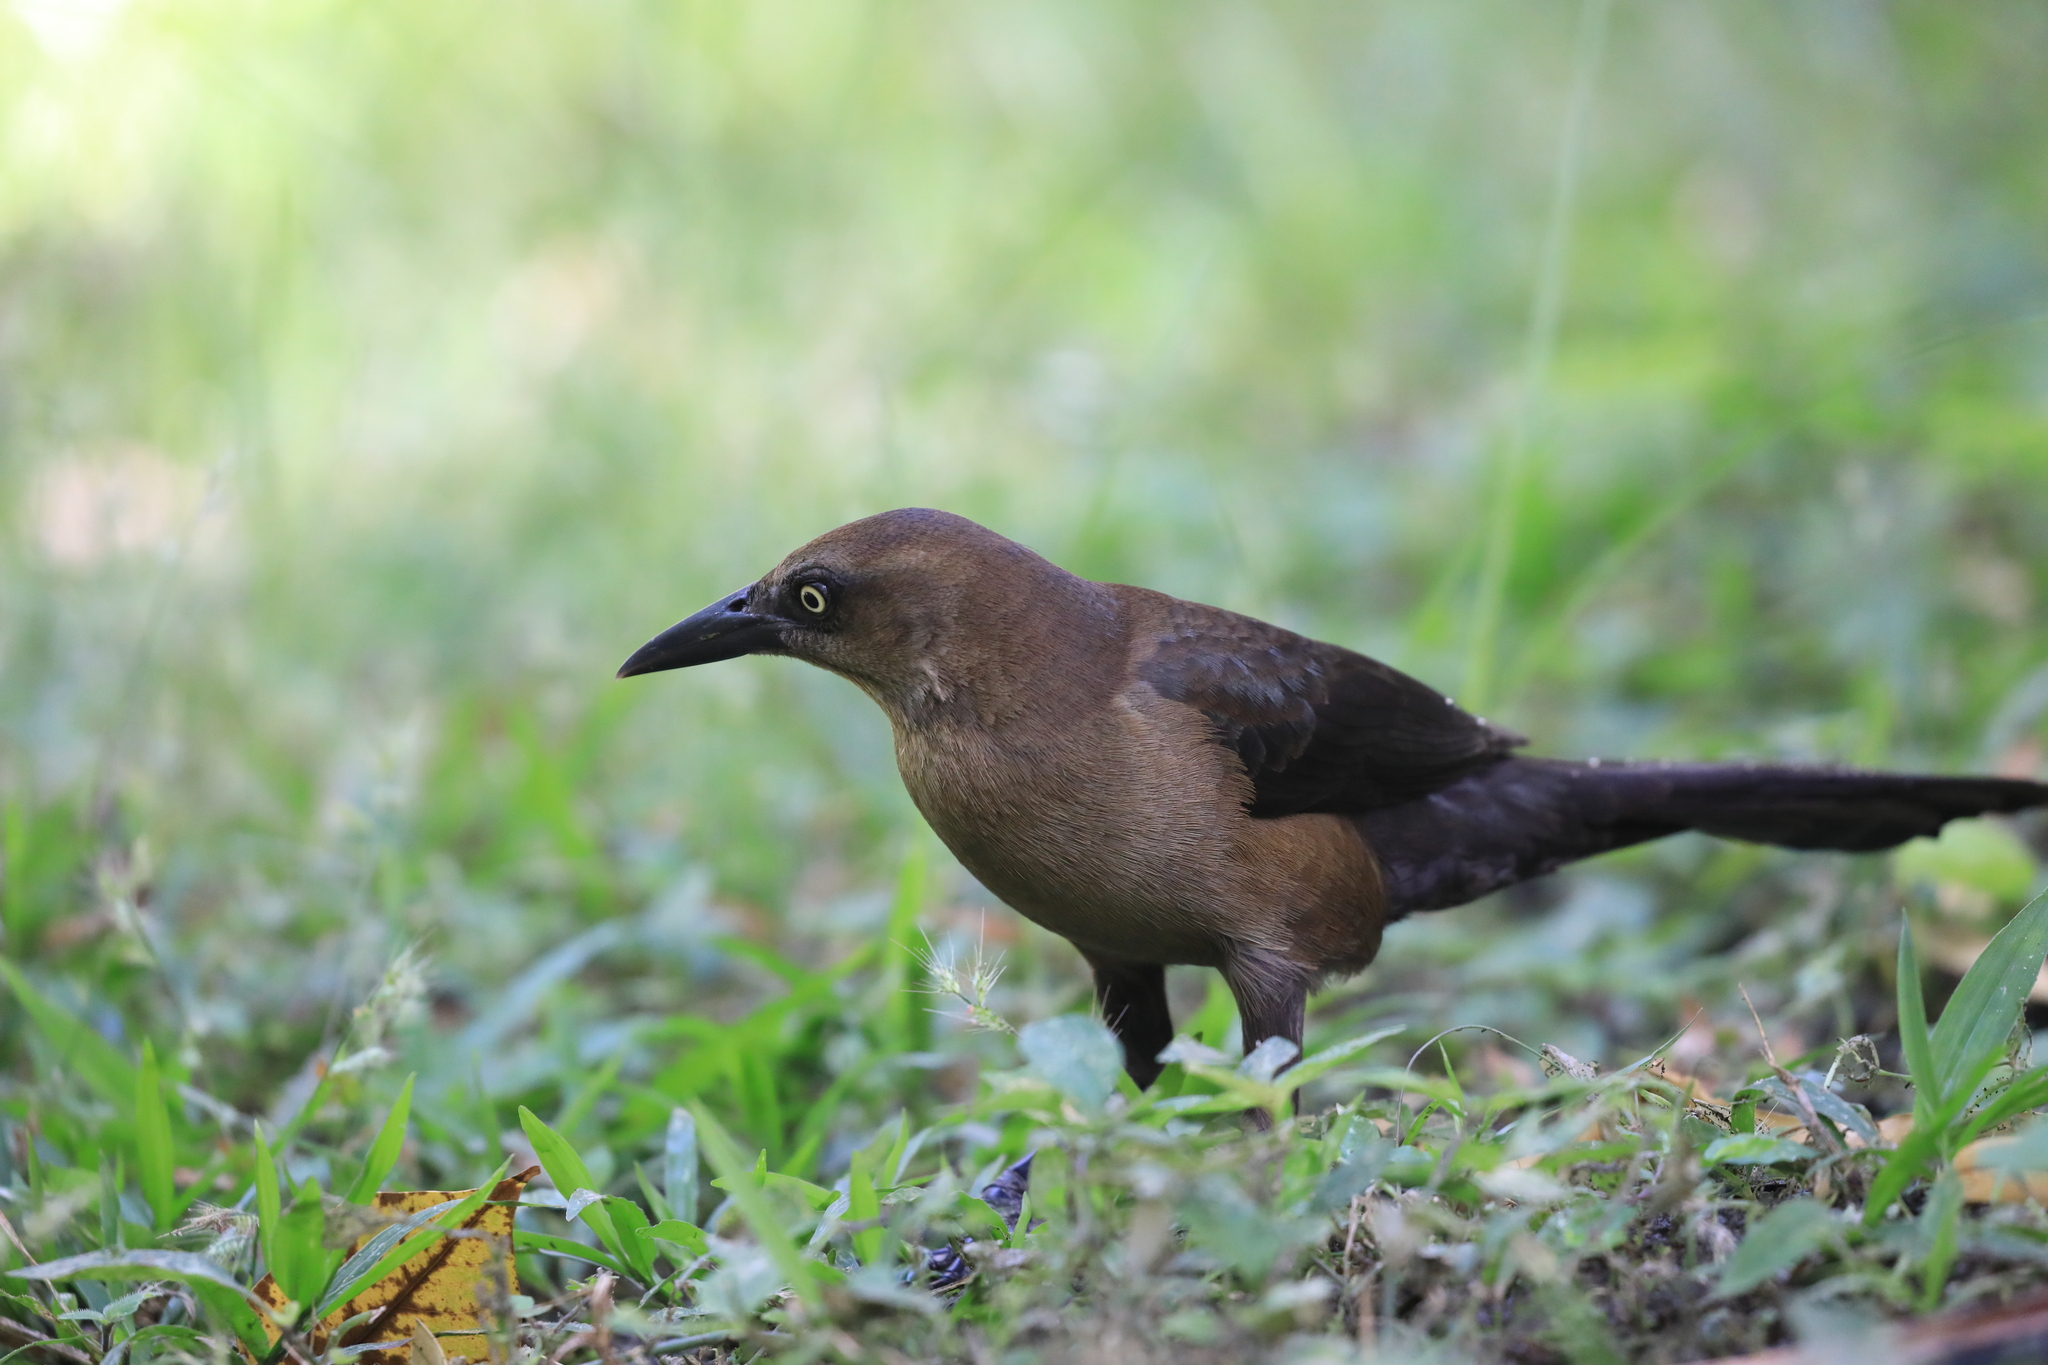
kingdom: Animalia
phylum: Chordata
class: Aves
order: Passeriformes
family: Icteridae
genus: Quiscalus
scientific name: Quiscalus mexicanus
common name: Great-tailed grackle
